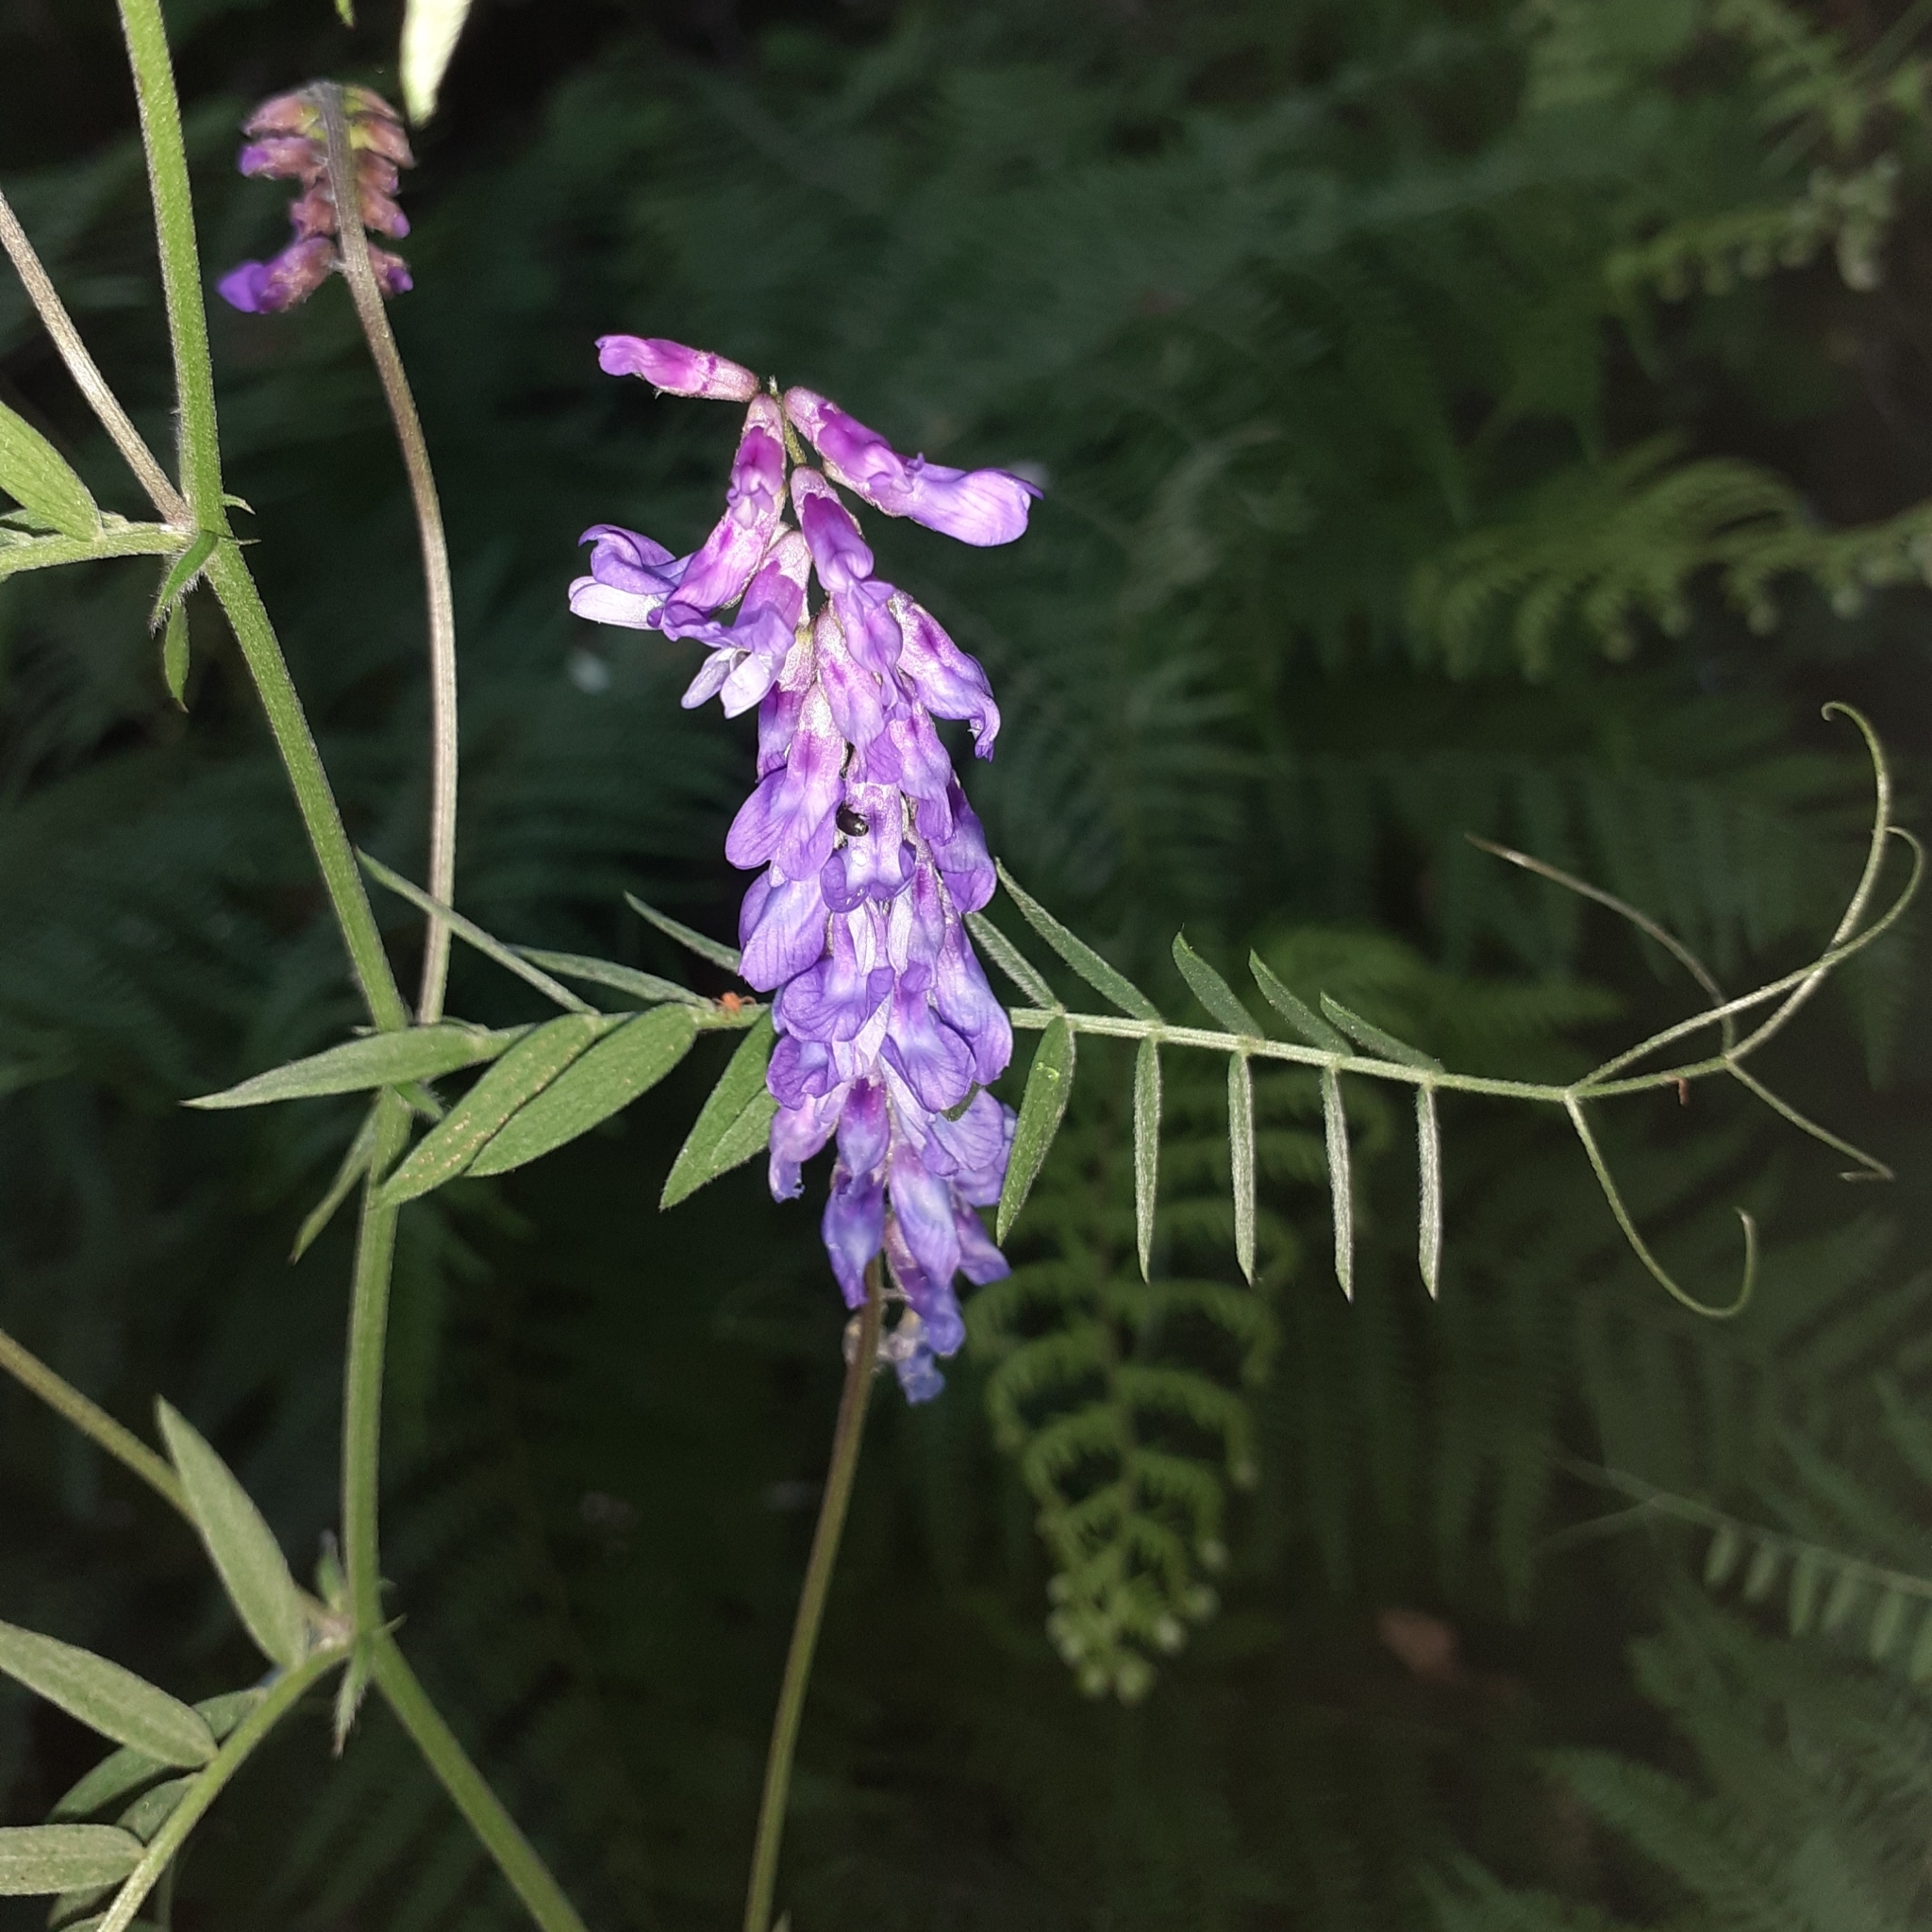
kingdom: Plantae
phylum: Tracheophyta
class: Magnoliopsida
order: Fabales
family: Fabaceae
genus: Vicia
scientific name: Vicia cracca
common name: Bird vetch
